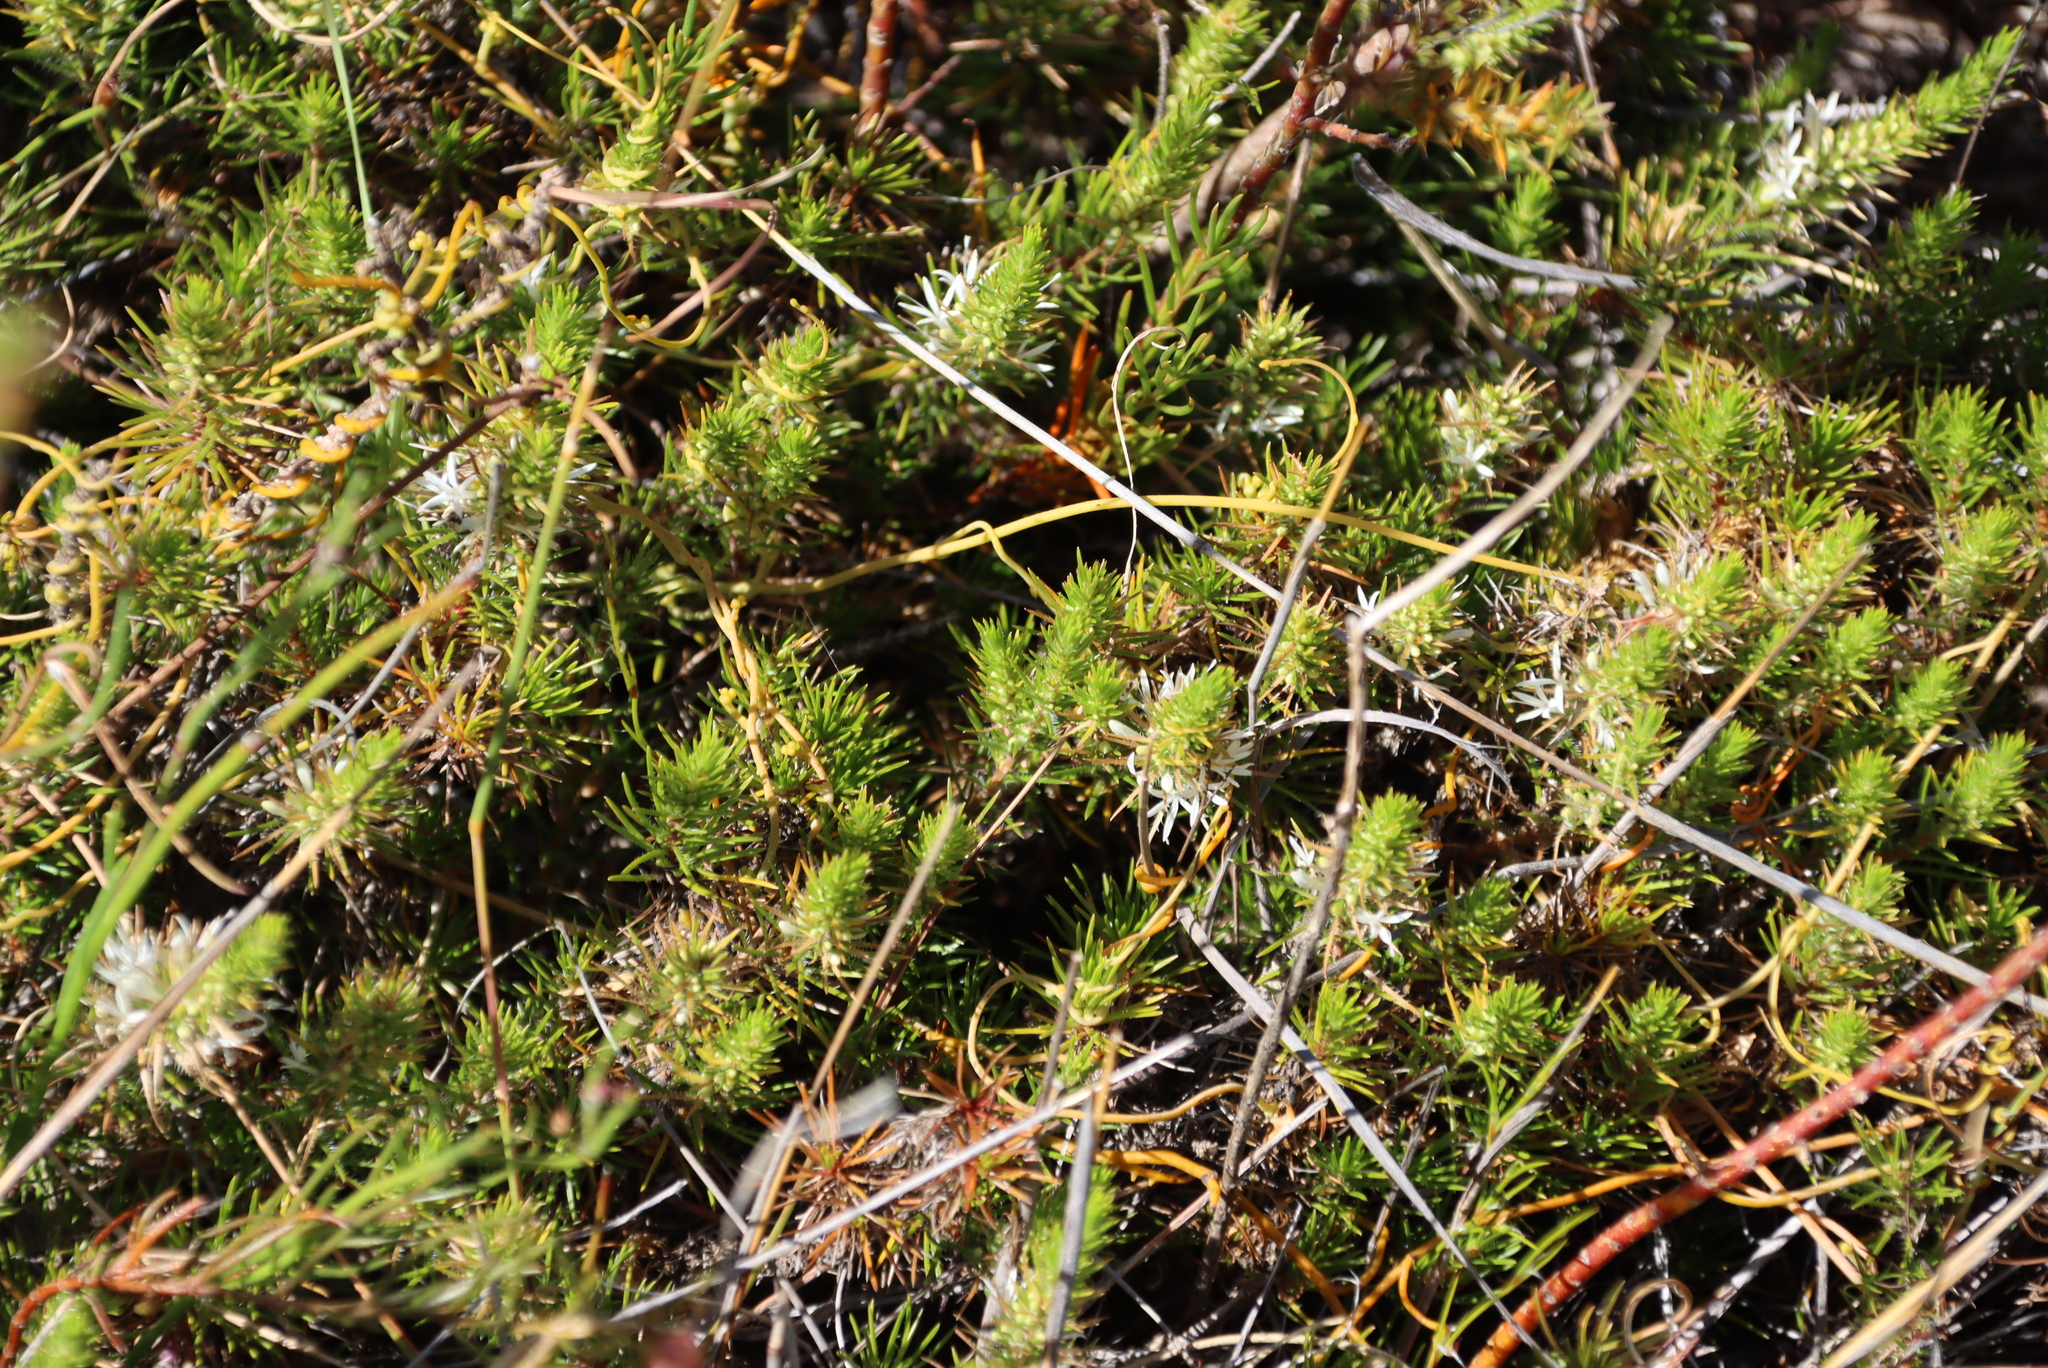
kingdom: Plantae
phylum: Tracheophyta
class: Magnoliopsida
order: Asterales
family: Campanulaceae
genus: Merciera
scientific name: Merciera leptoloba
